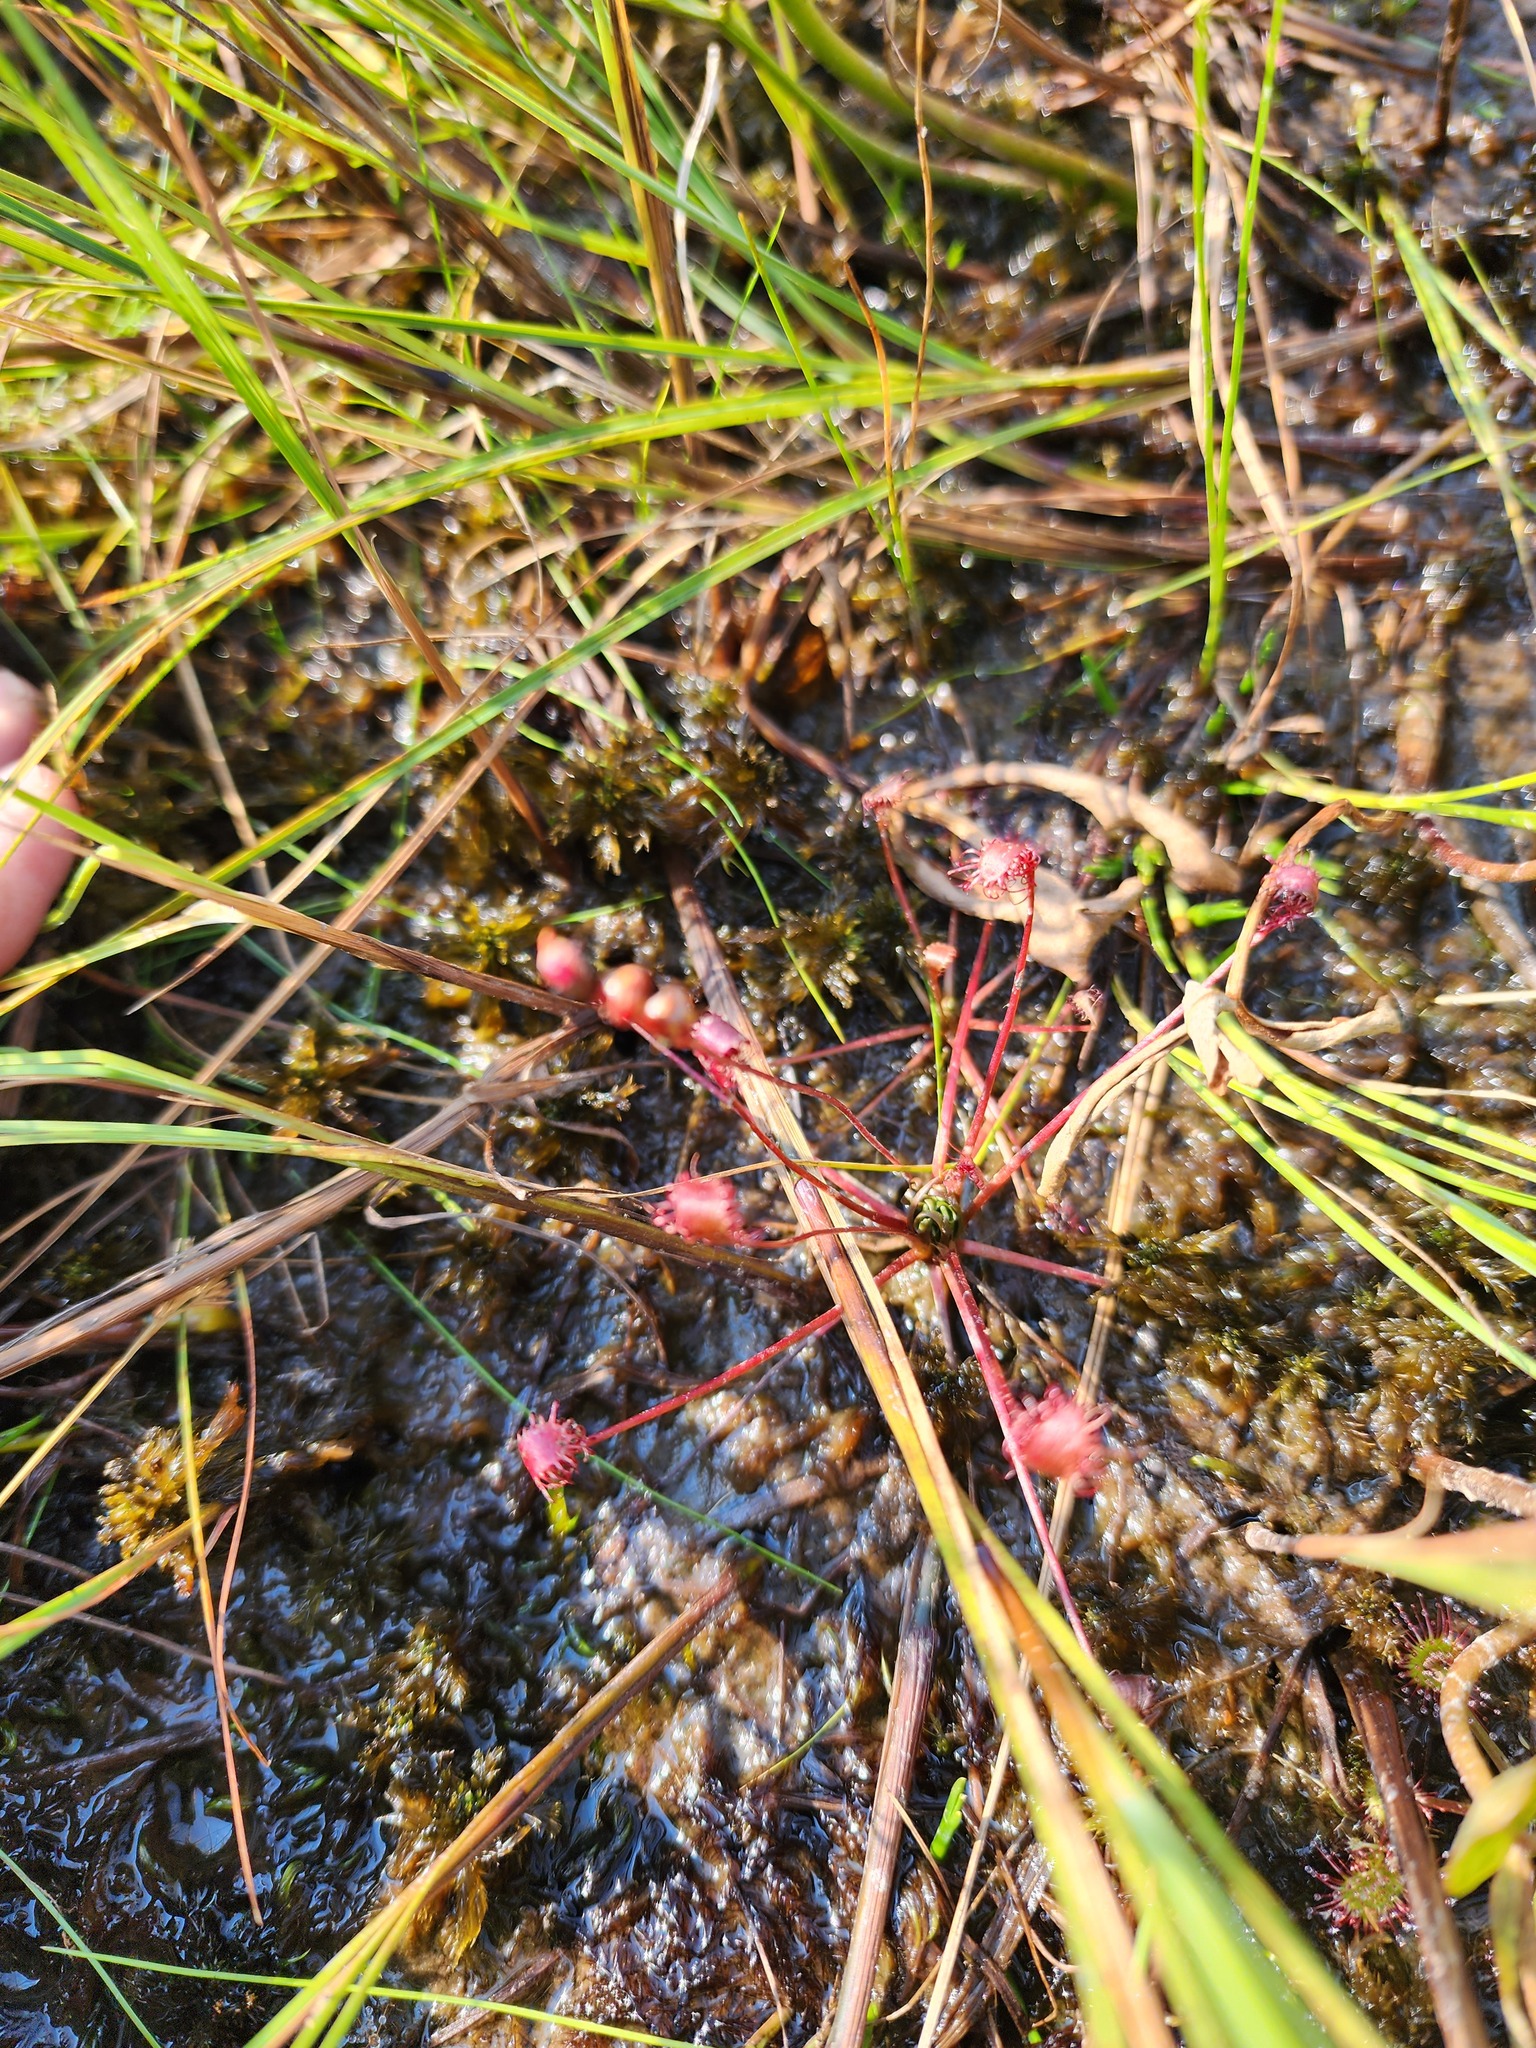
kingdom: Plantae
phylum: Tracheophyta
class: Magnoliopsida
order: Caryophyllales
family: Droseraceae
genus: Drosera
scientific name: Drosera intermedia
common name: Oblong-leaved sundew
